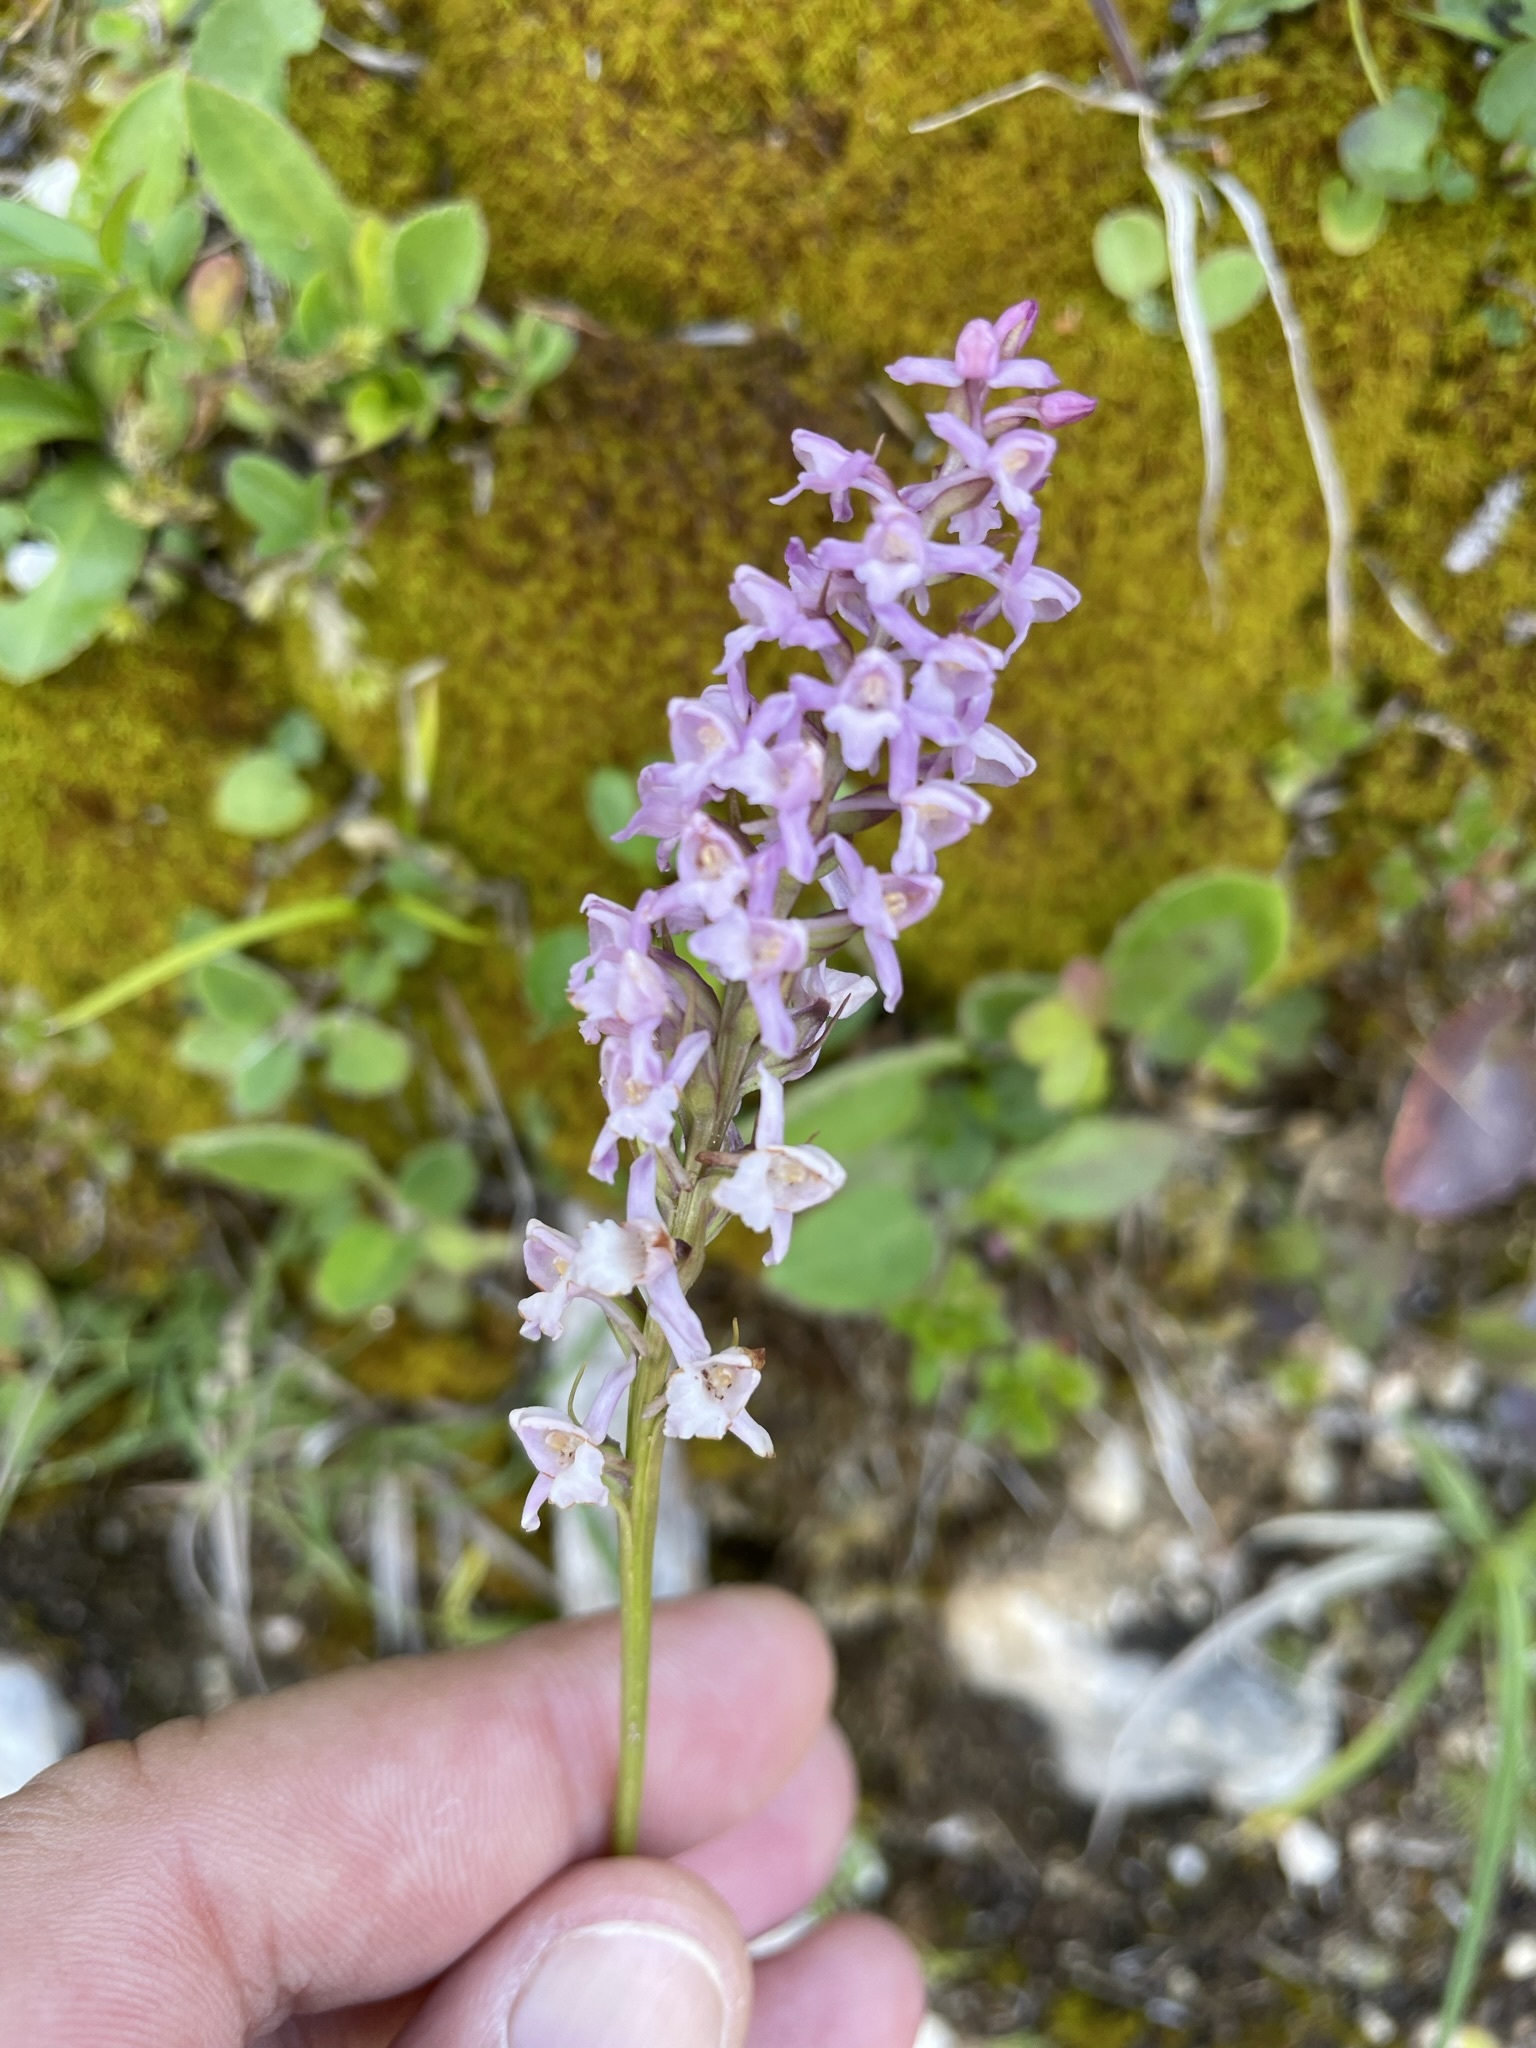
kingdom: Plantae
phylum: Tracheophyta
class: Liliopsida
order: Asparagales
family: Orchidaceae
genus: Gymnadenia
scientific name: Gymnadenia odoratissima
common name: Scented gymnadenia
